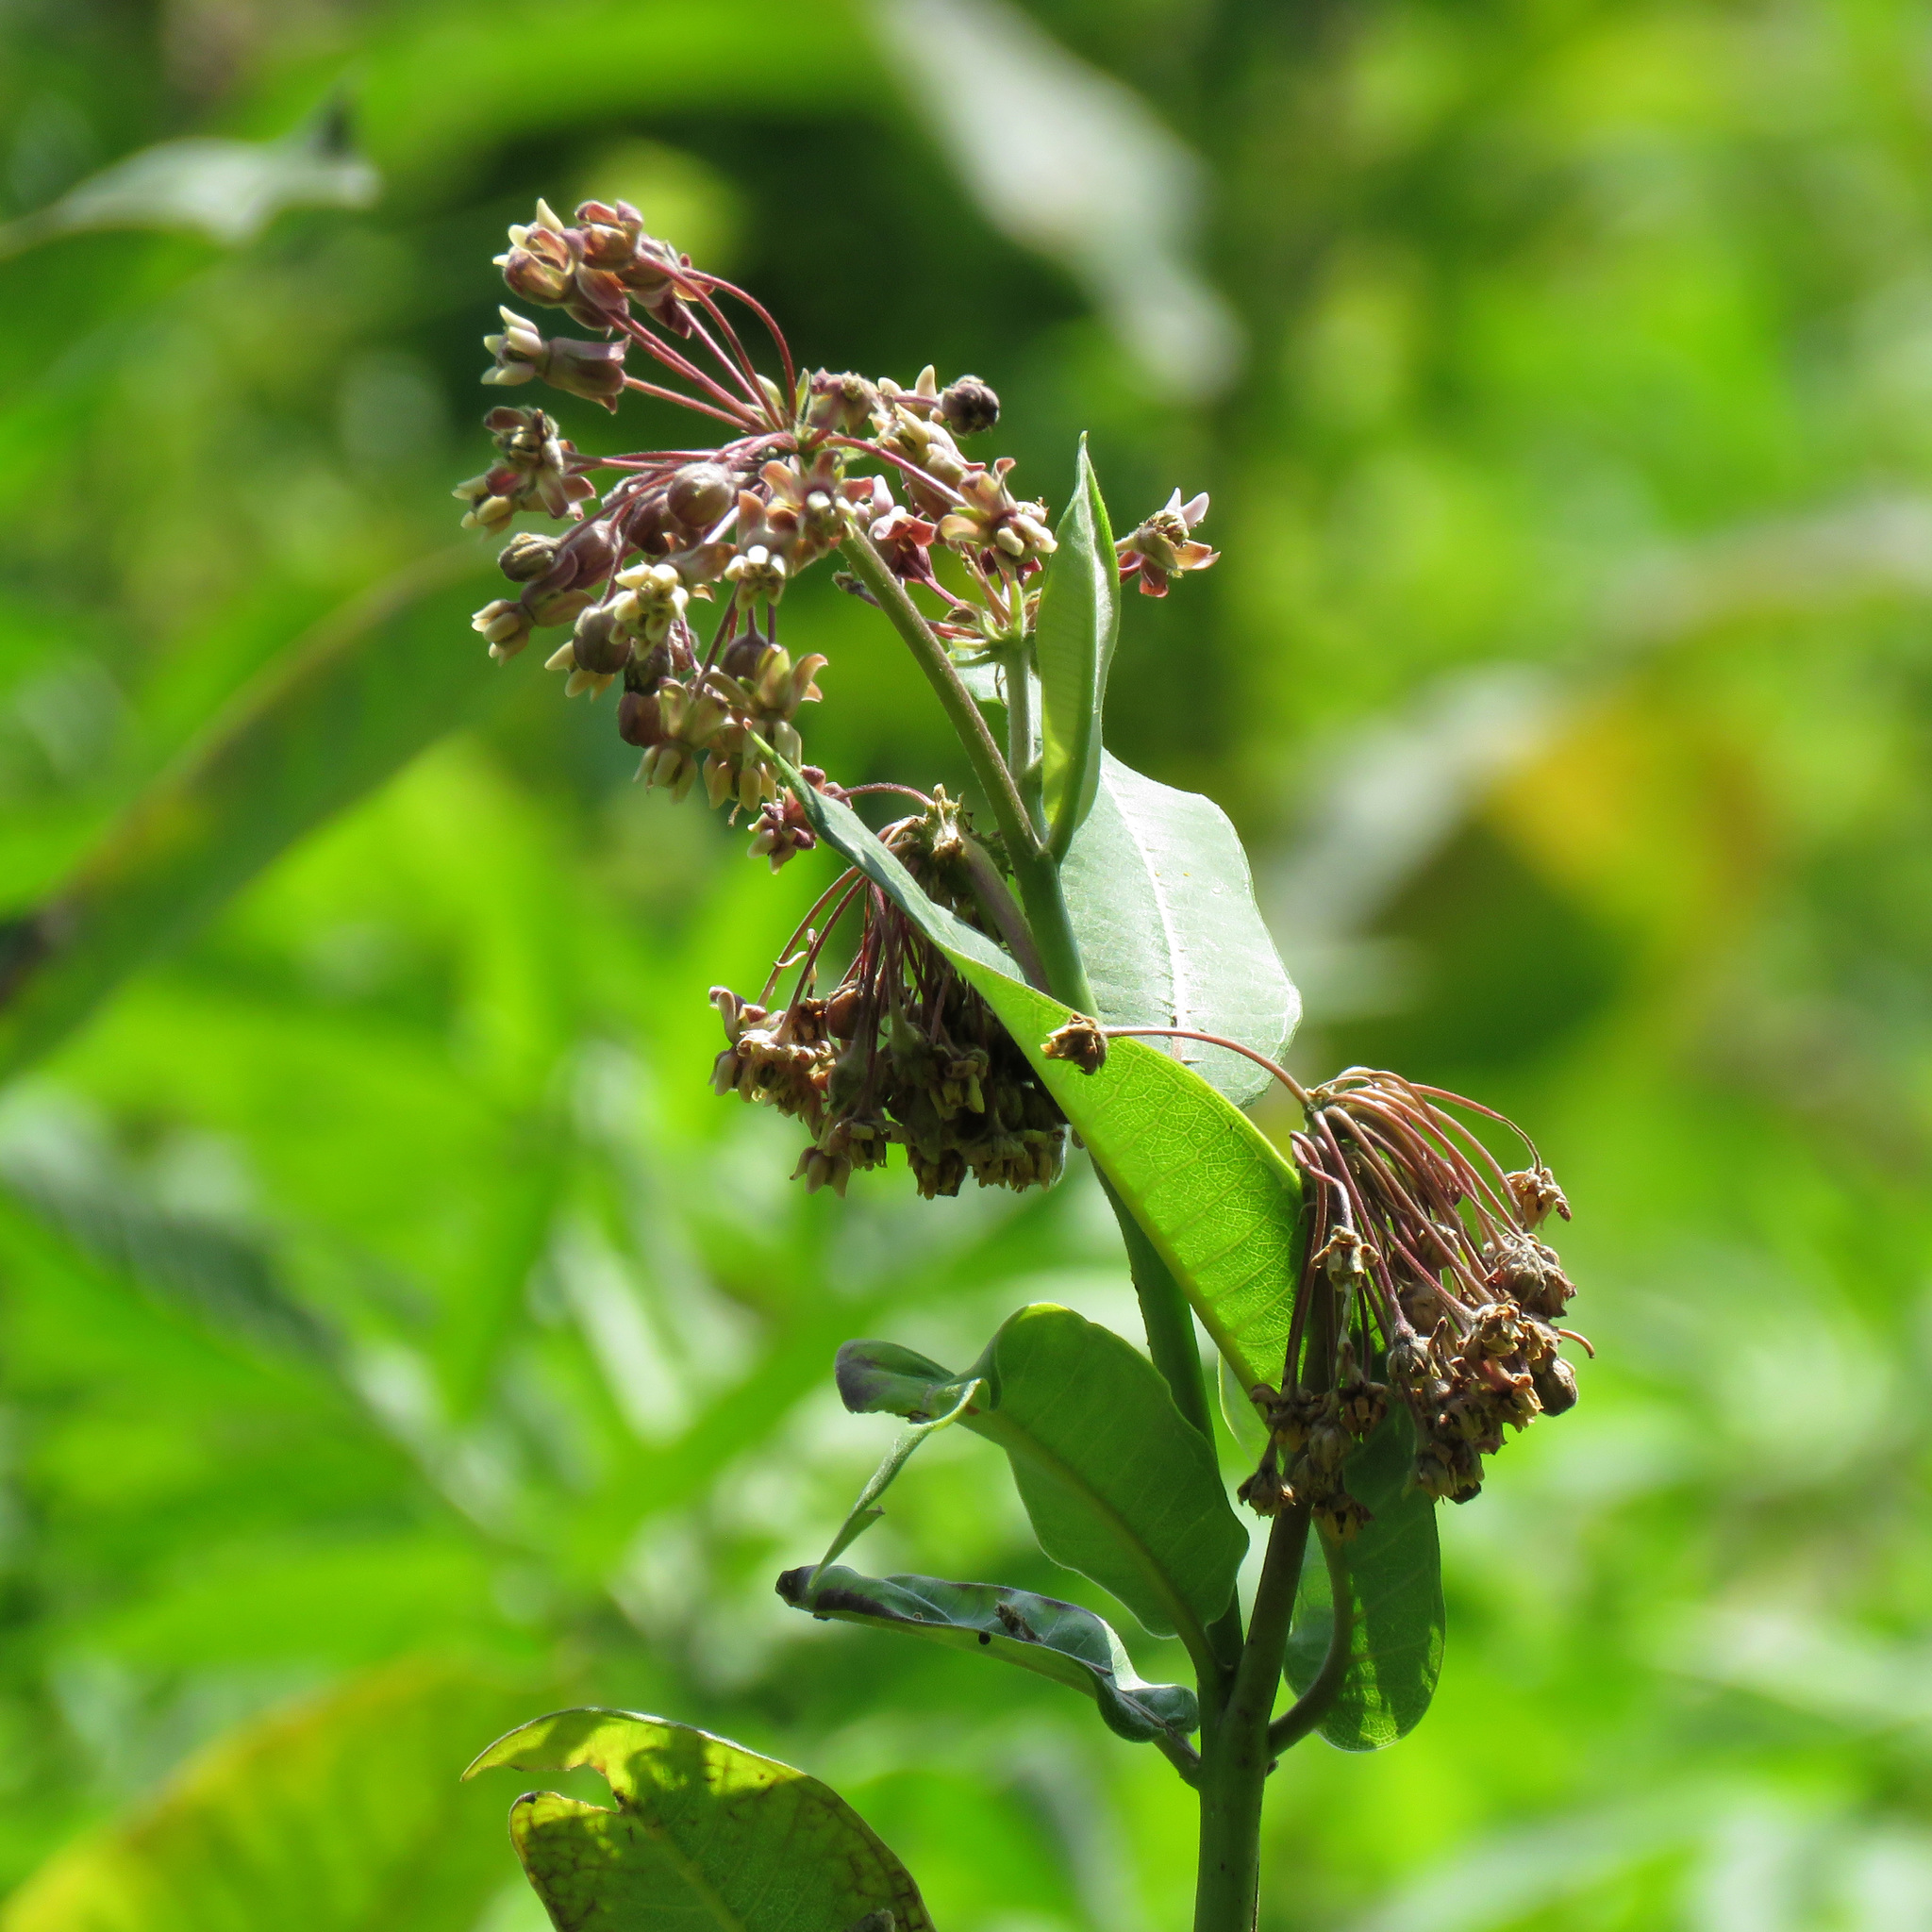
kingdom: Plantae
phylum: Tracheophyta
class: Magnoliopsida
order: Gentianales
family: Apocynaceae
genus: Asclepias
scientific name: Asclepias syriaca
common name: Common milkweed
